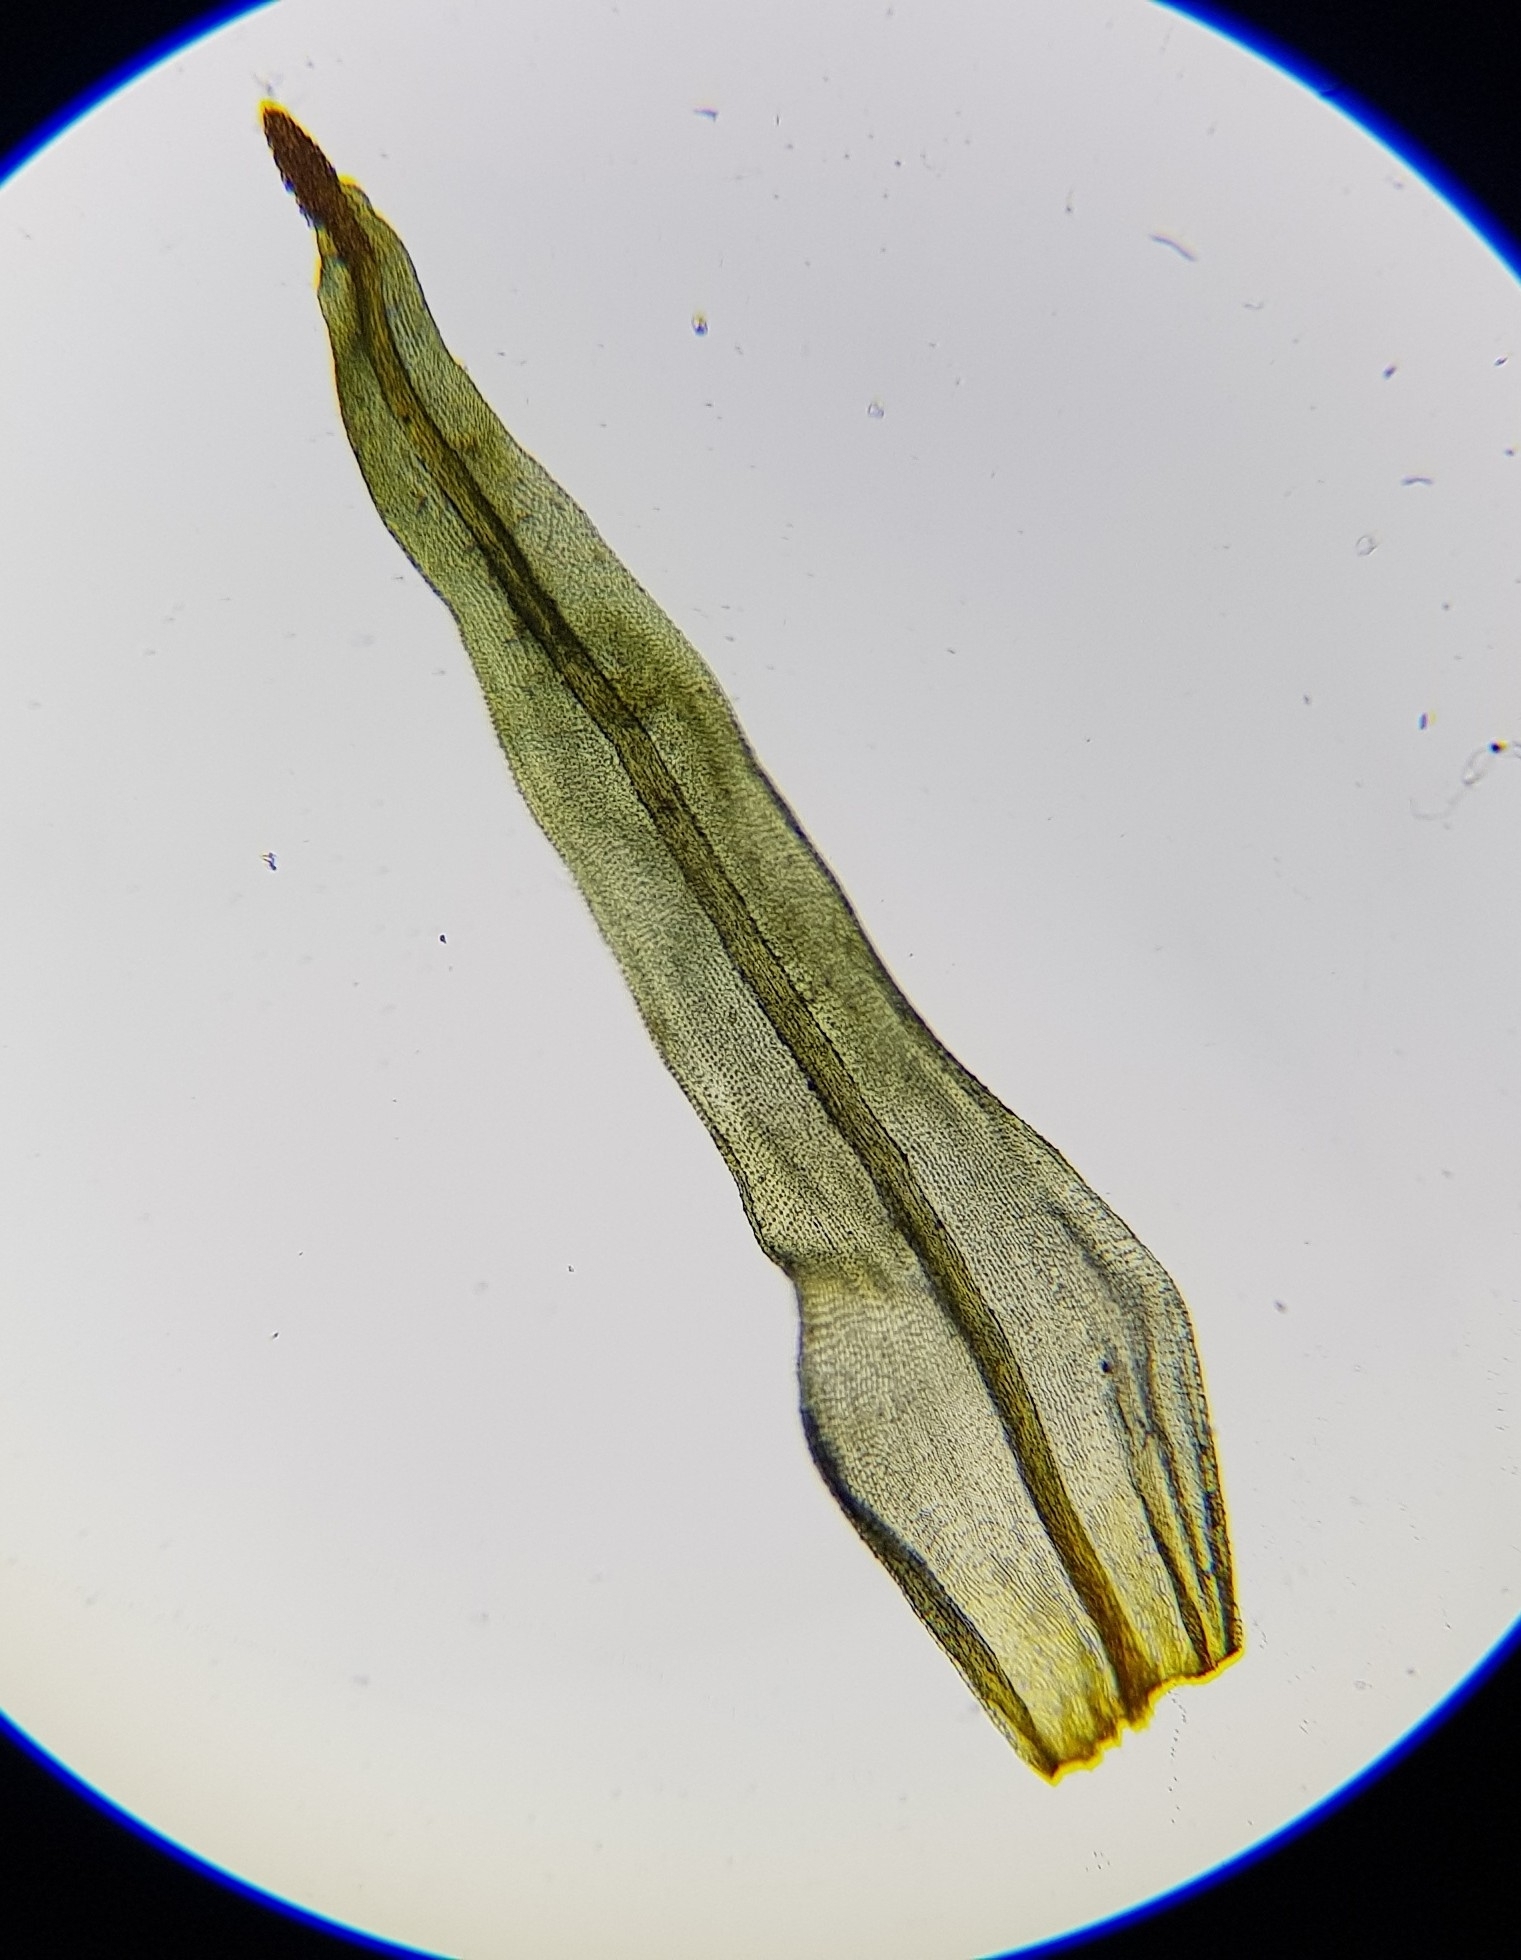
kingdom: Plantae
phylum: Bryophyta
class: Bryopsida
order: Orthotrichales
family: Orthotrichaceae
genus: Plenogemma
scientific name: Plenogemma phyllantha
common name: Frizzled pincushion
